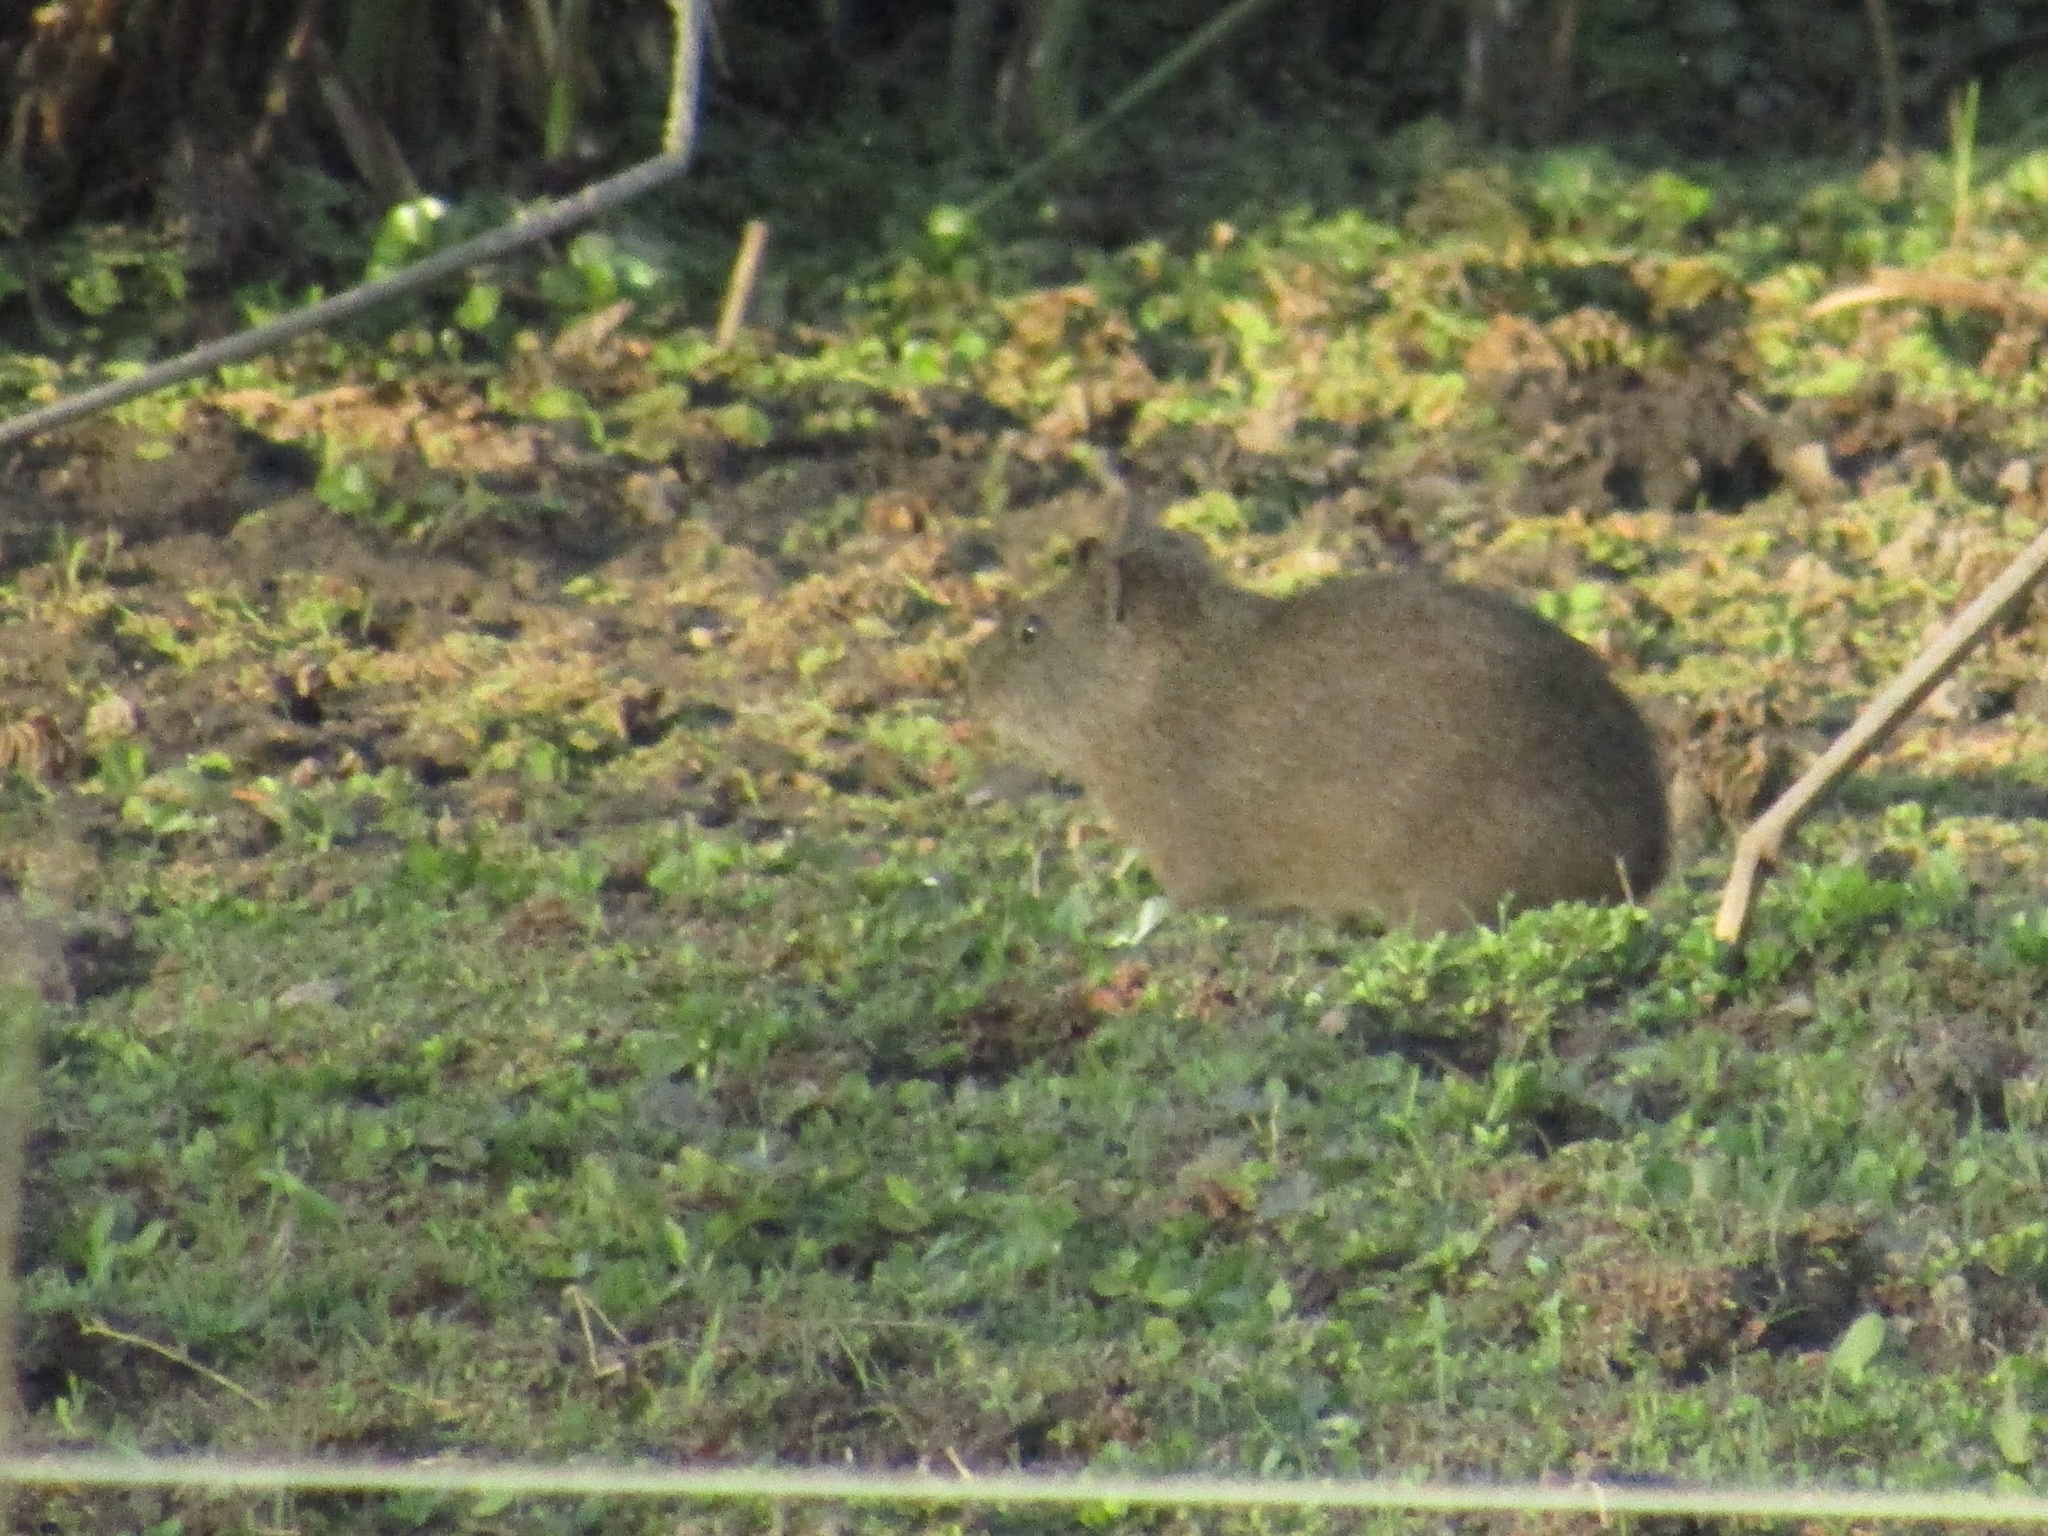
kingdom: Animalia
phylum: Chordata
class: Mammalia
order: Rodentia
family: Caviidae
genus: Cavia
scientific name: Cavia aperea
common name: Brazilian guinea pig
